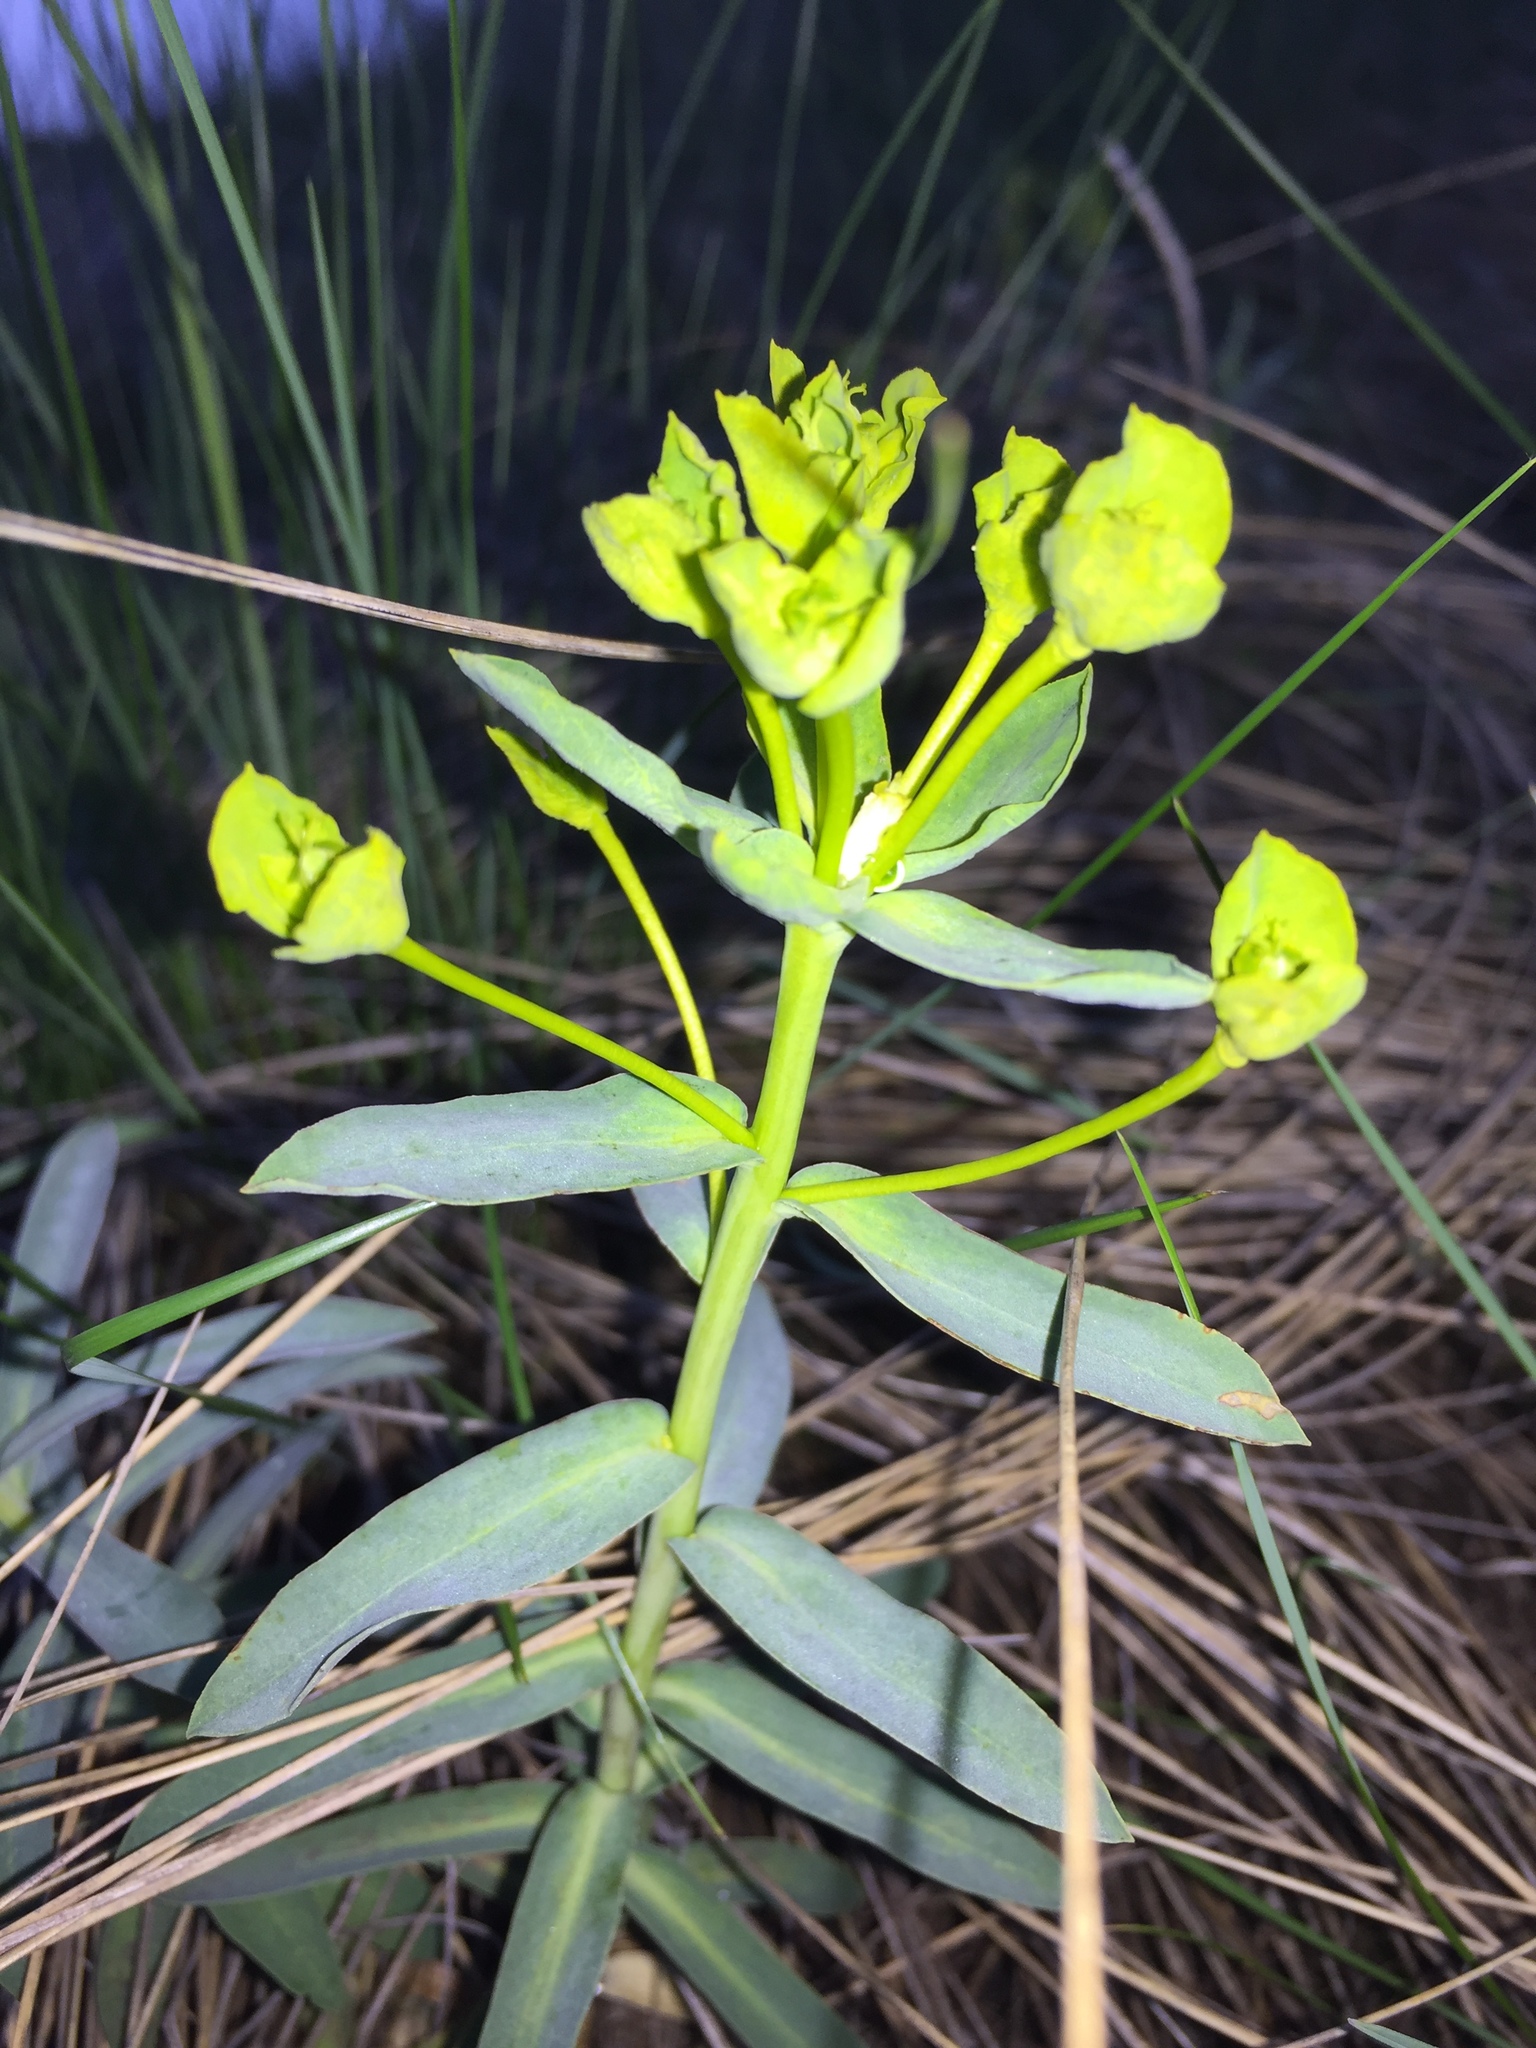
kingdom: Plantae
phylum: Tracheophyta
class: Magnoliopsida
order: Malpighiales
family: Euphorbiaceae
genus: Euphorbia
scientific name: Euphorbia virgata
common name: Leafy spurge
